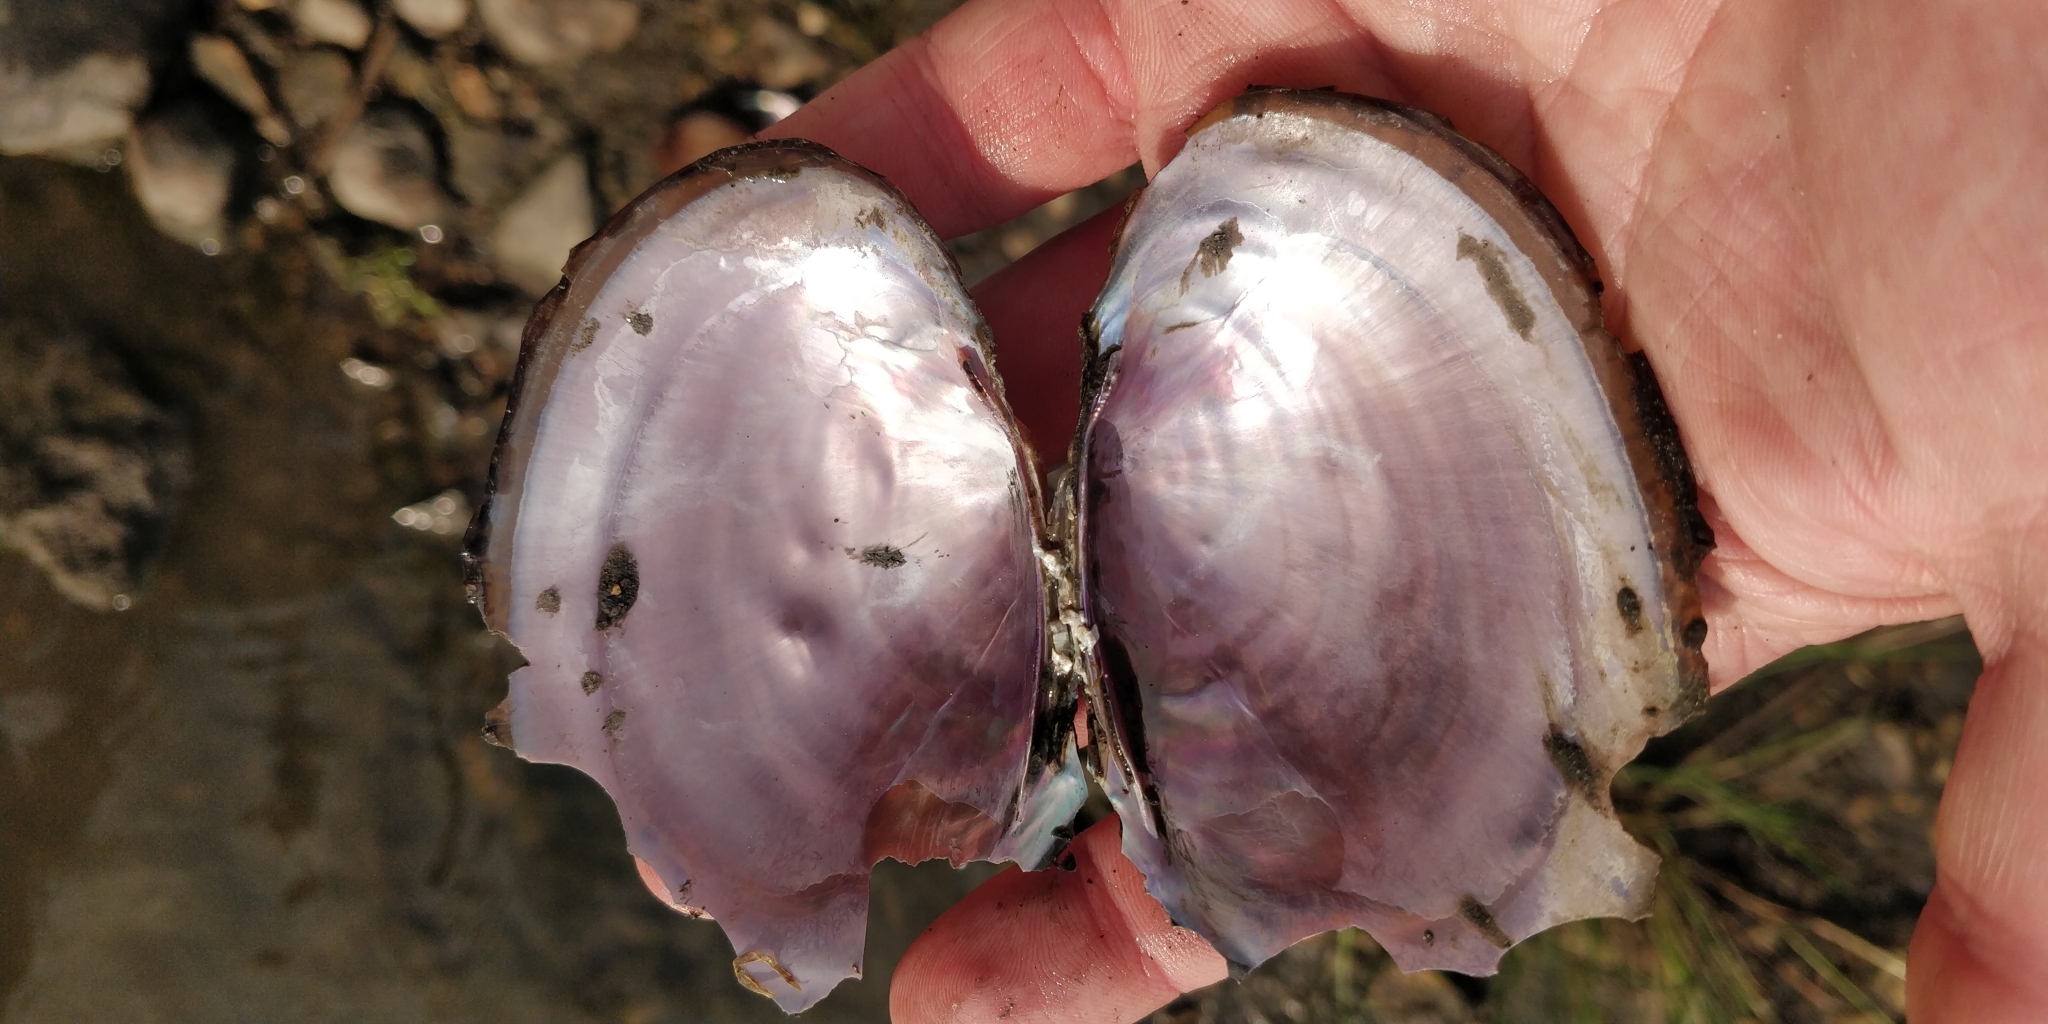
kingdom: Animalia
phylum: Mollusca
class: Bivalvia
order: Unionida
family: Unionidae
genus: Potamilus
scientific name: Potamilus ohiensis
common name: Pink papershell
